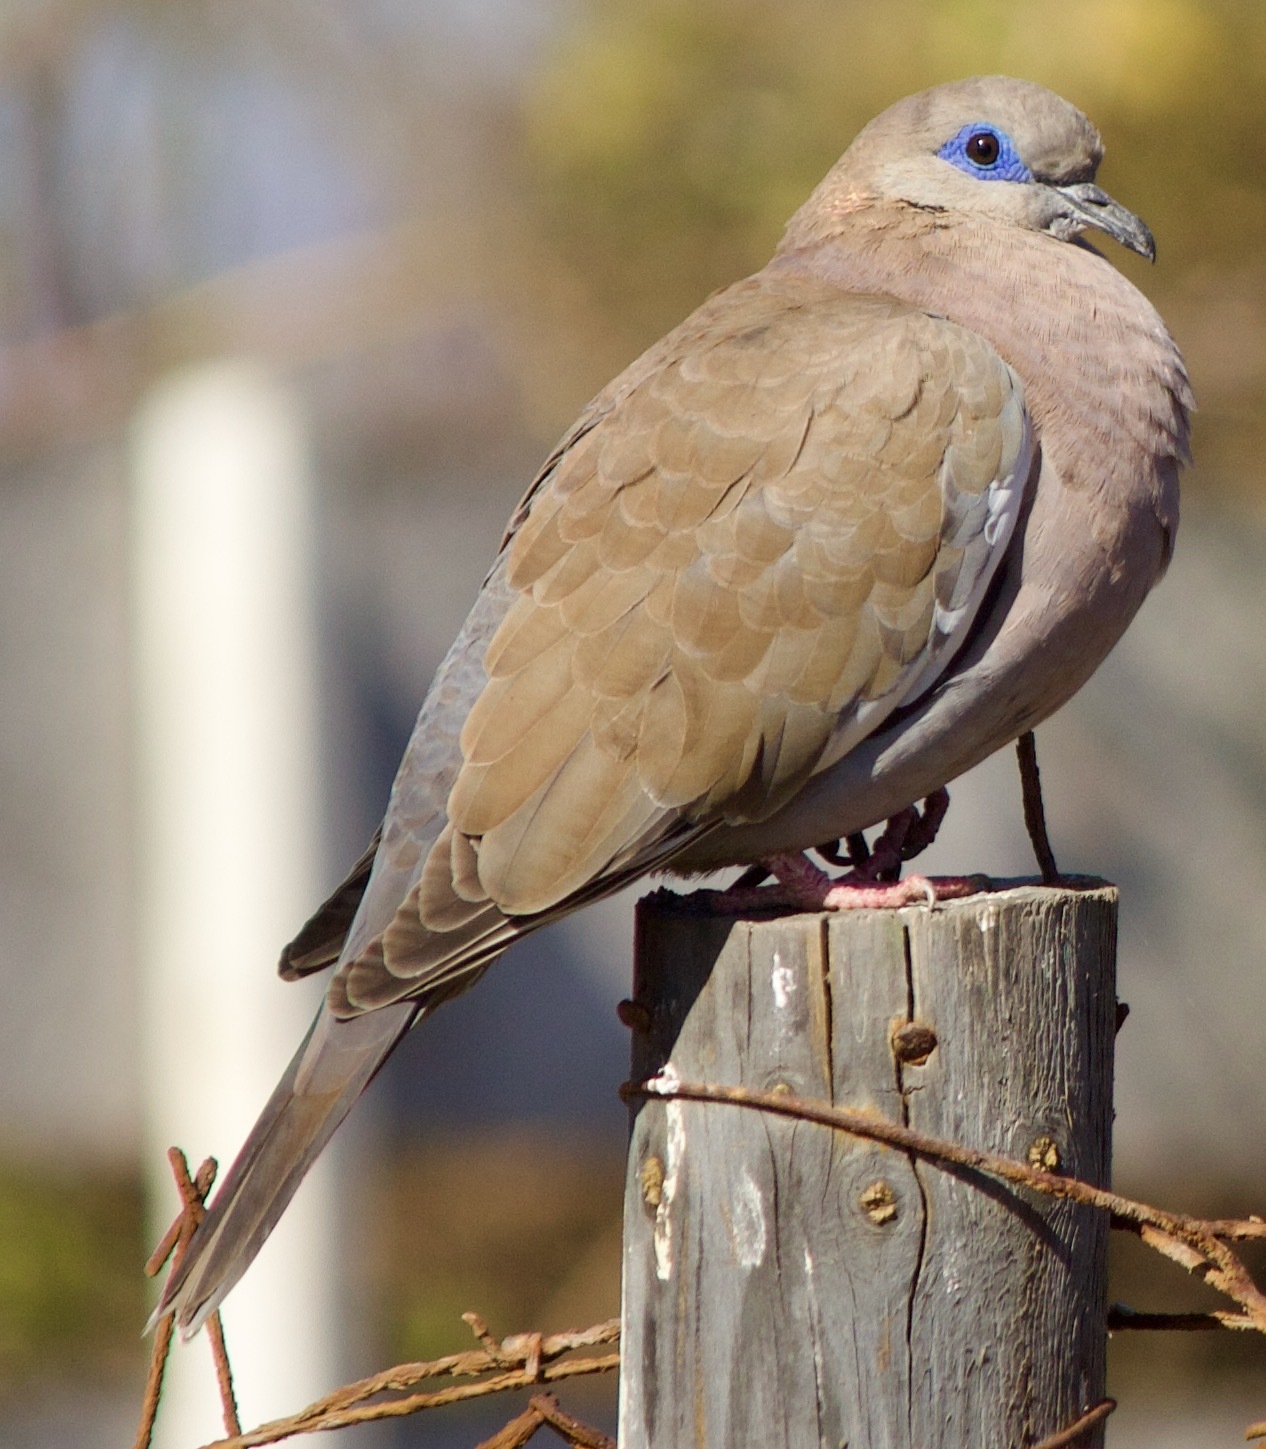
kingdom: Animalia
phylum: Chordata
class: Aves
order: Columbiformes
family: Columbidae
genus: Zenaida
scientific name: Zenaida meloda
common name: West peruvian dove
